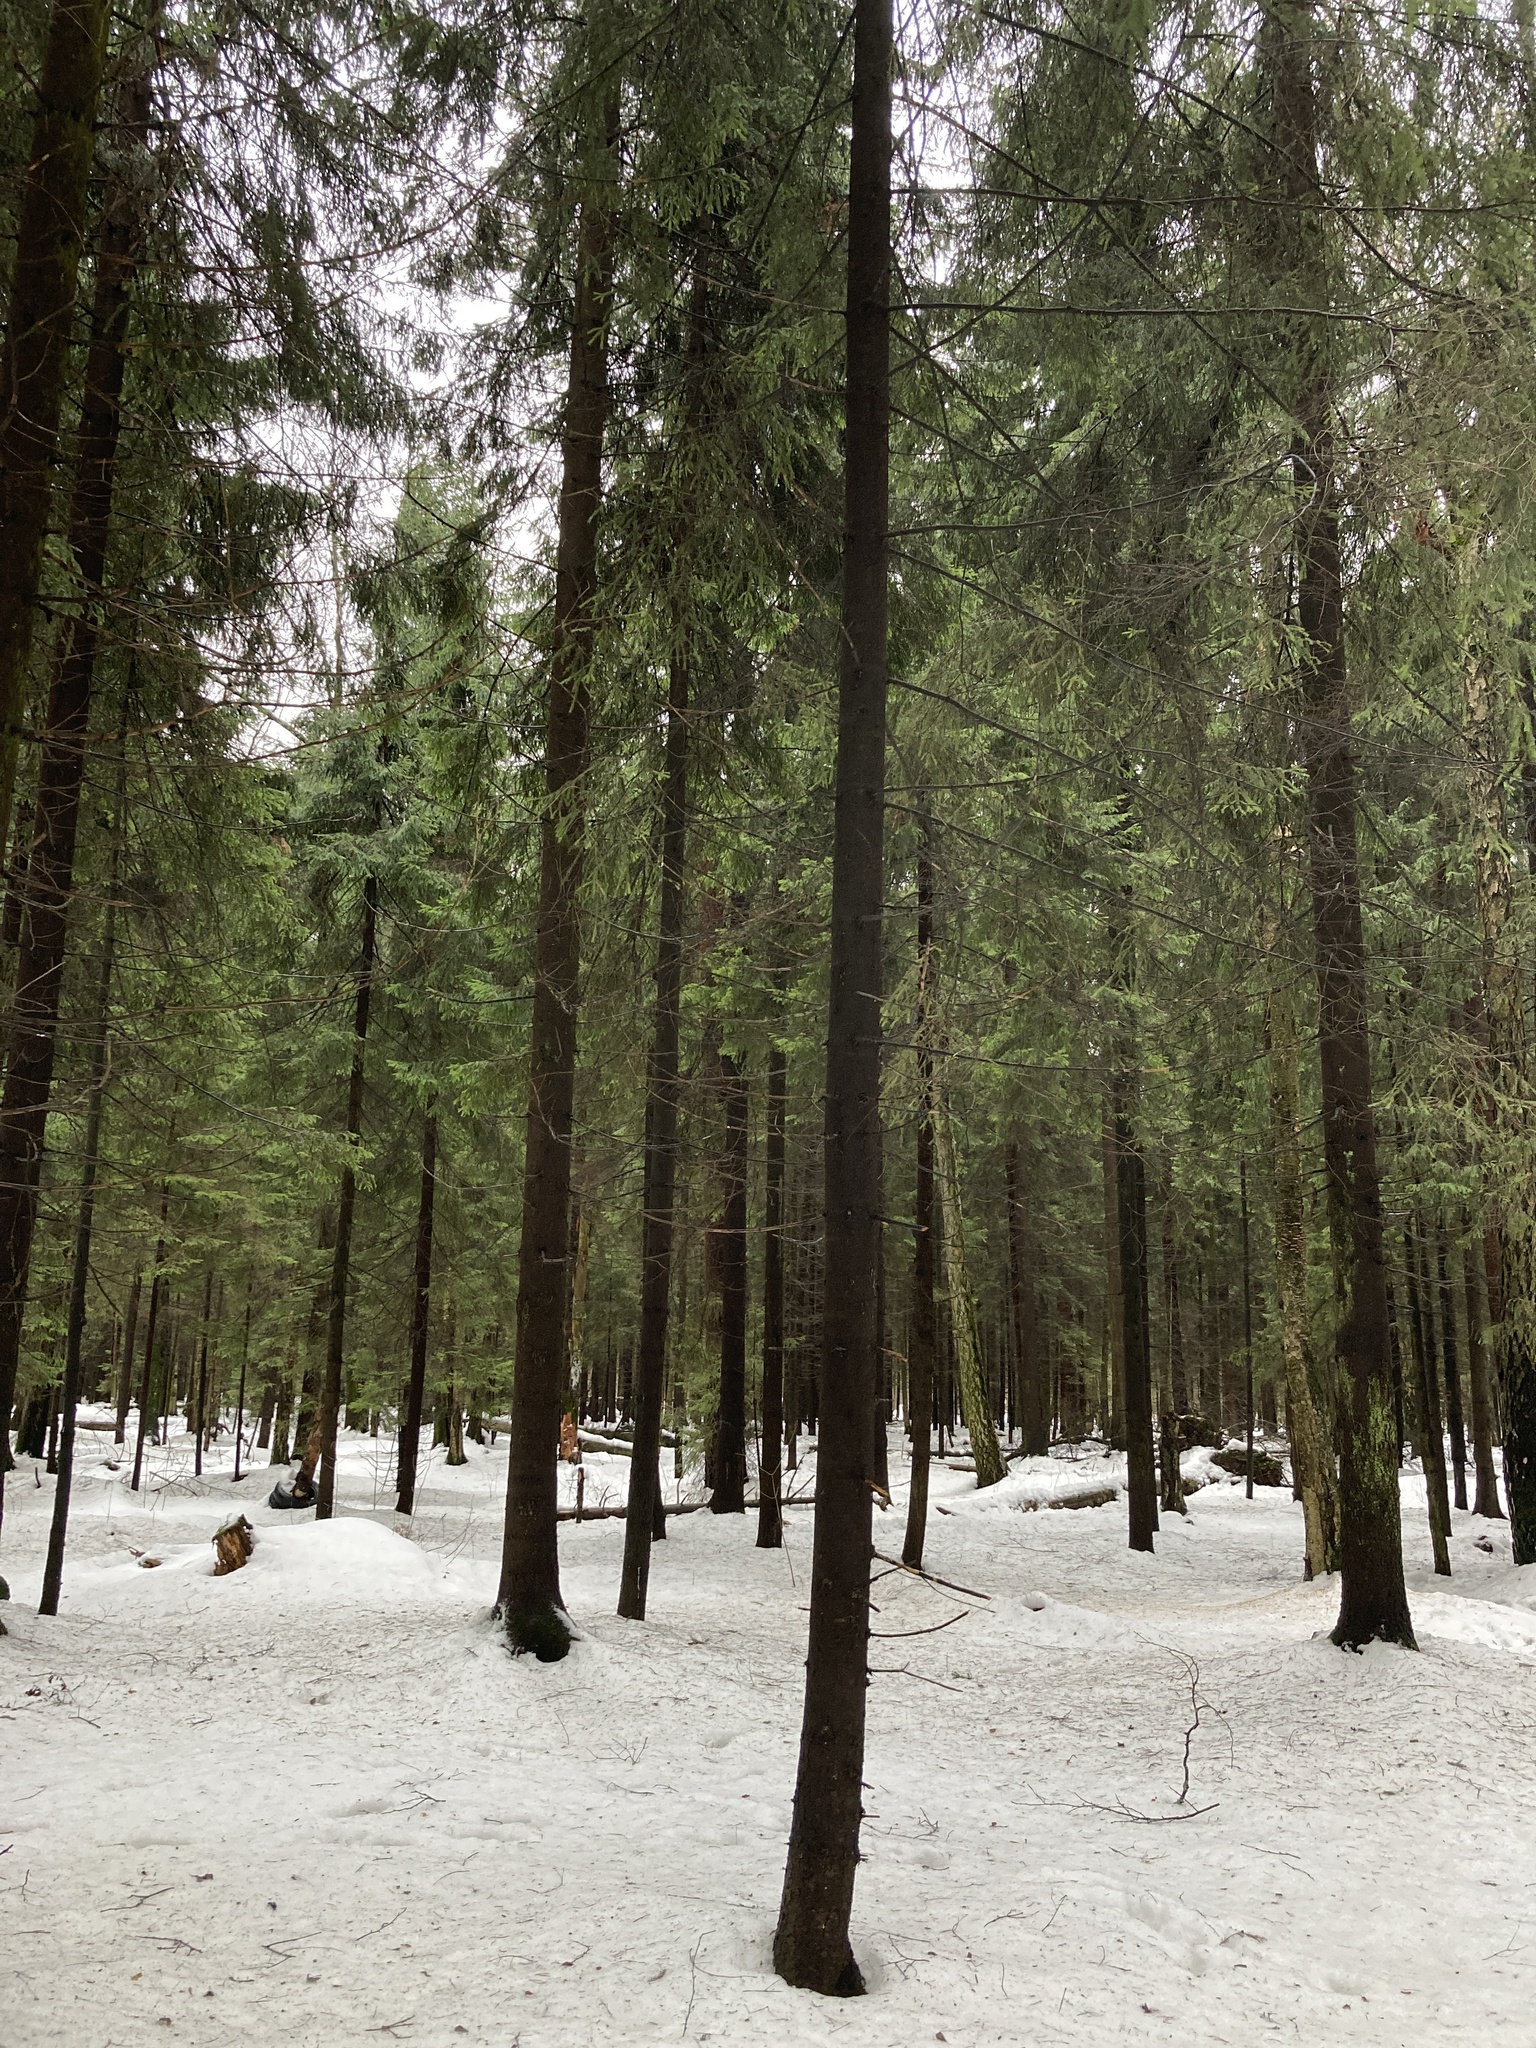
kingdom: Plantae
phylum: Tracheophyta
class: Pinopsida
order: Pinales
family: Pinaceae
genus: Picea
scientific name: Picea abies
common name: Norway spruce
